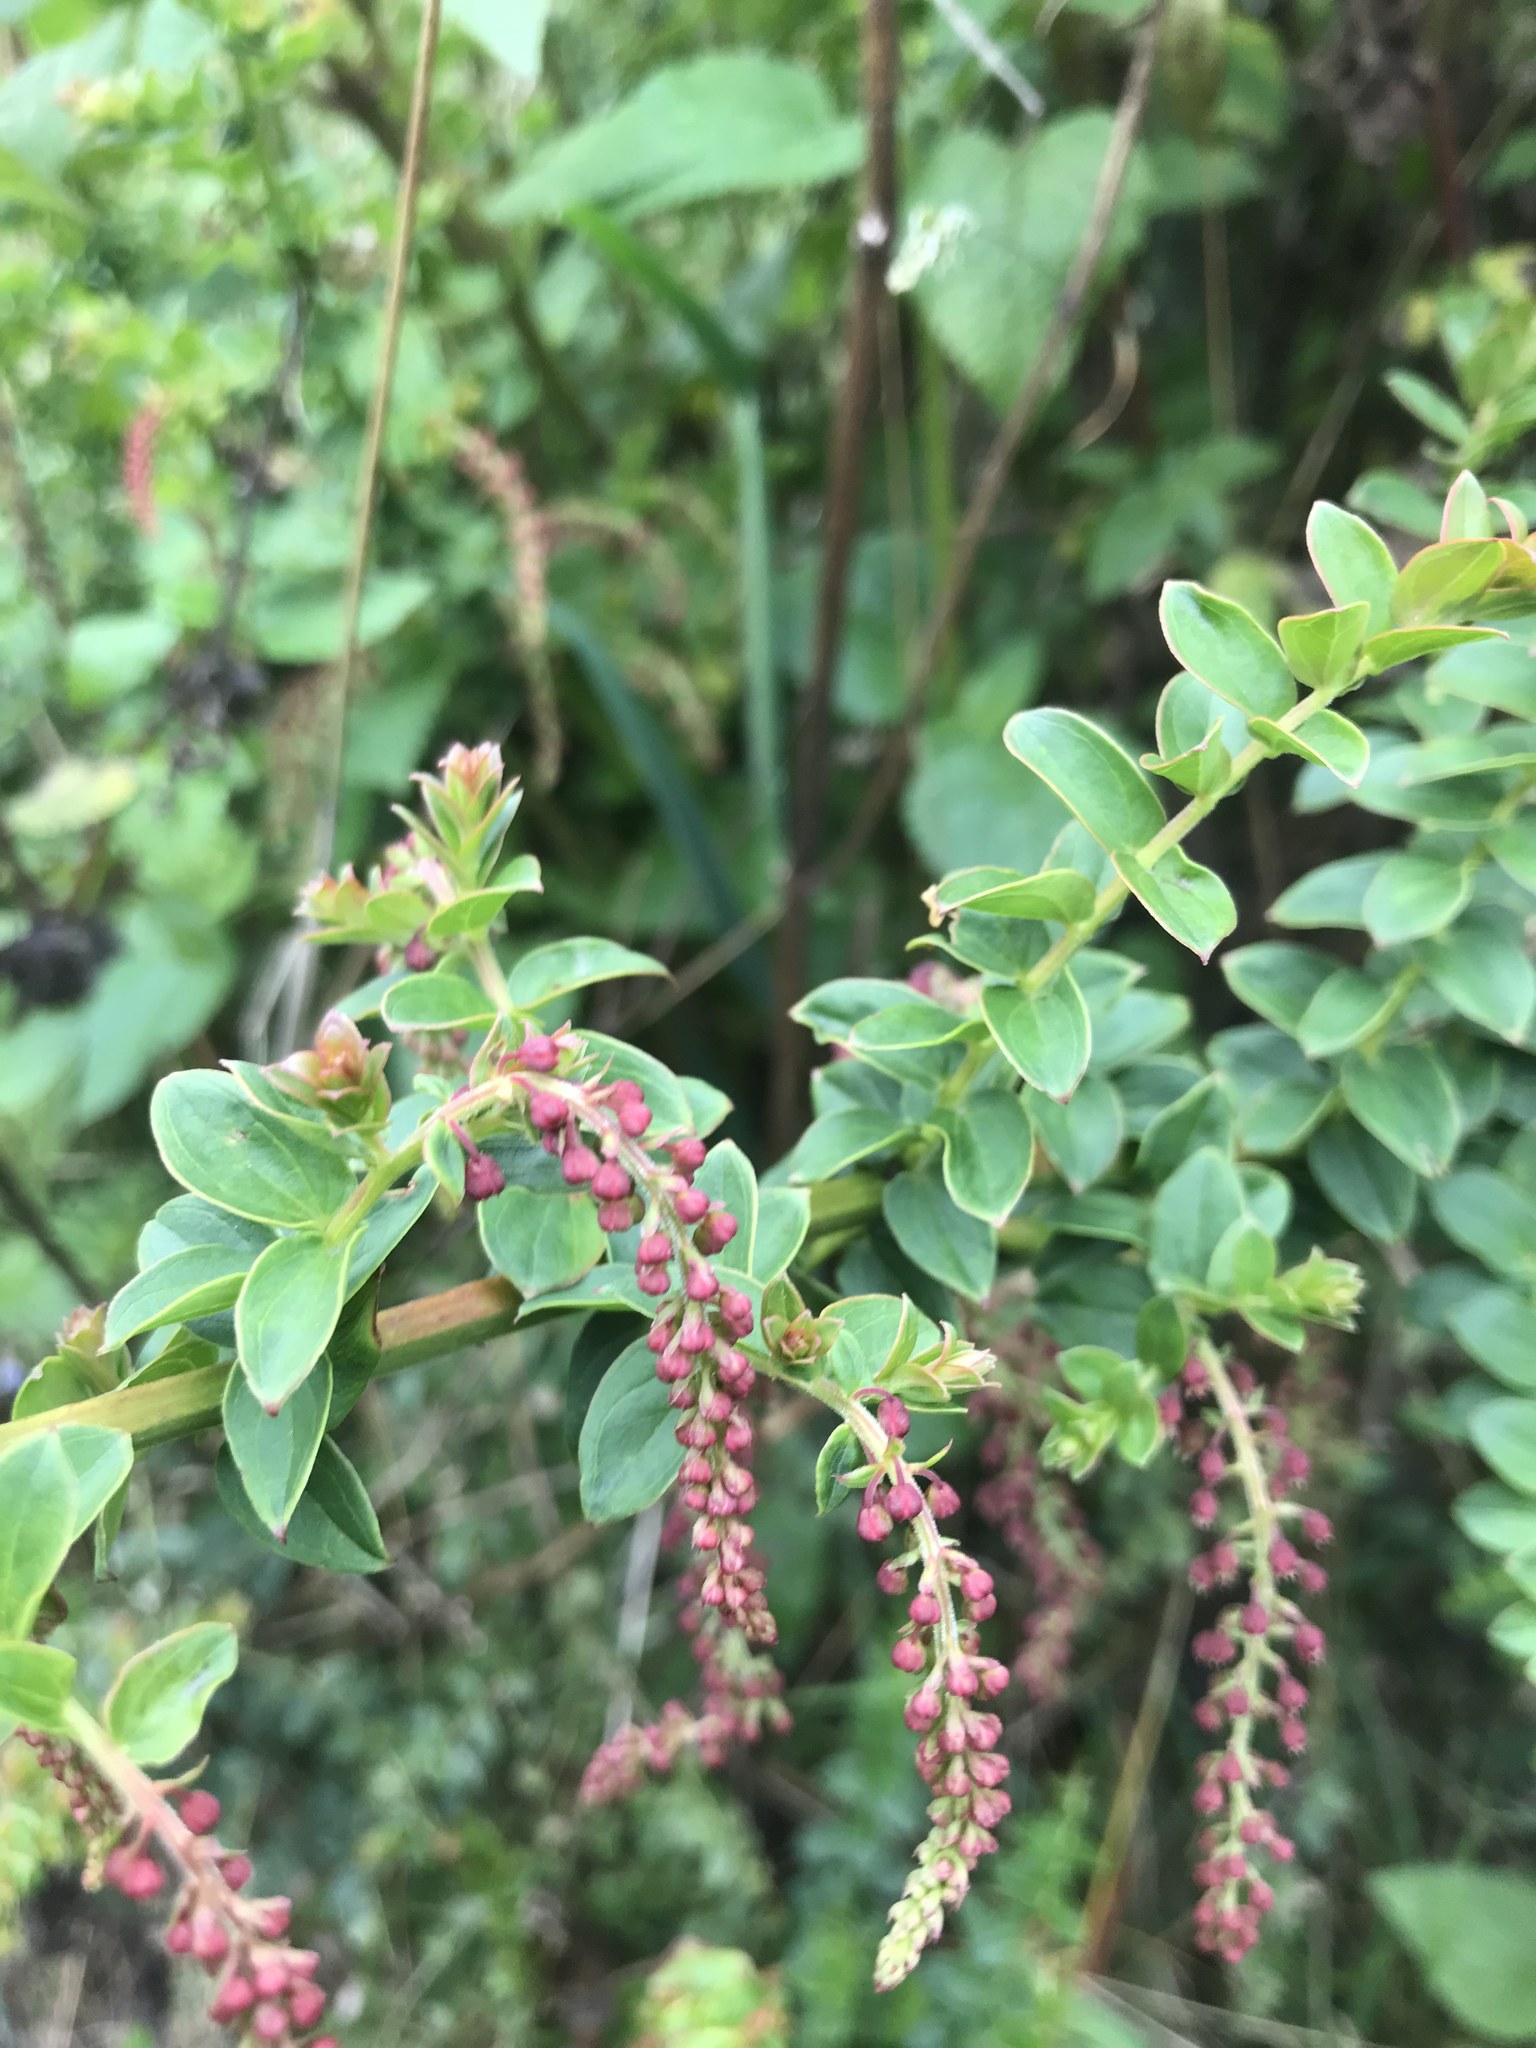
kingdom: Plantae
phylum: Tracheophyta
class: Magnoliopsida
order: Cucurbitales
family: Coriariaceae
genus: Coriaria
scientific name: Coriaria ruscifolia
